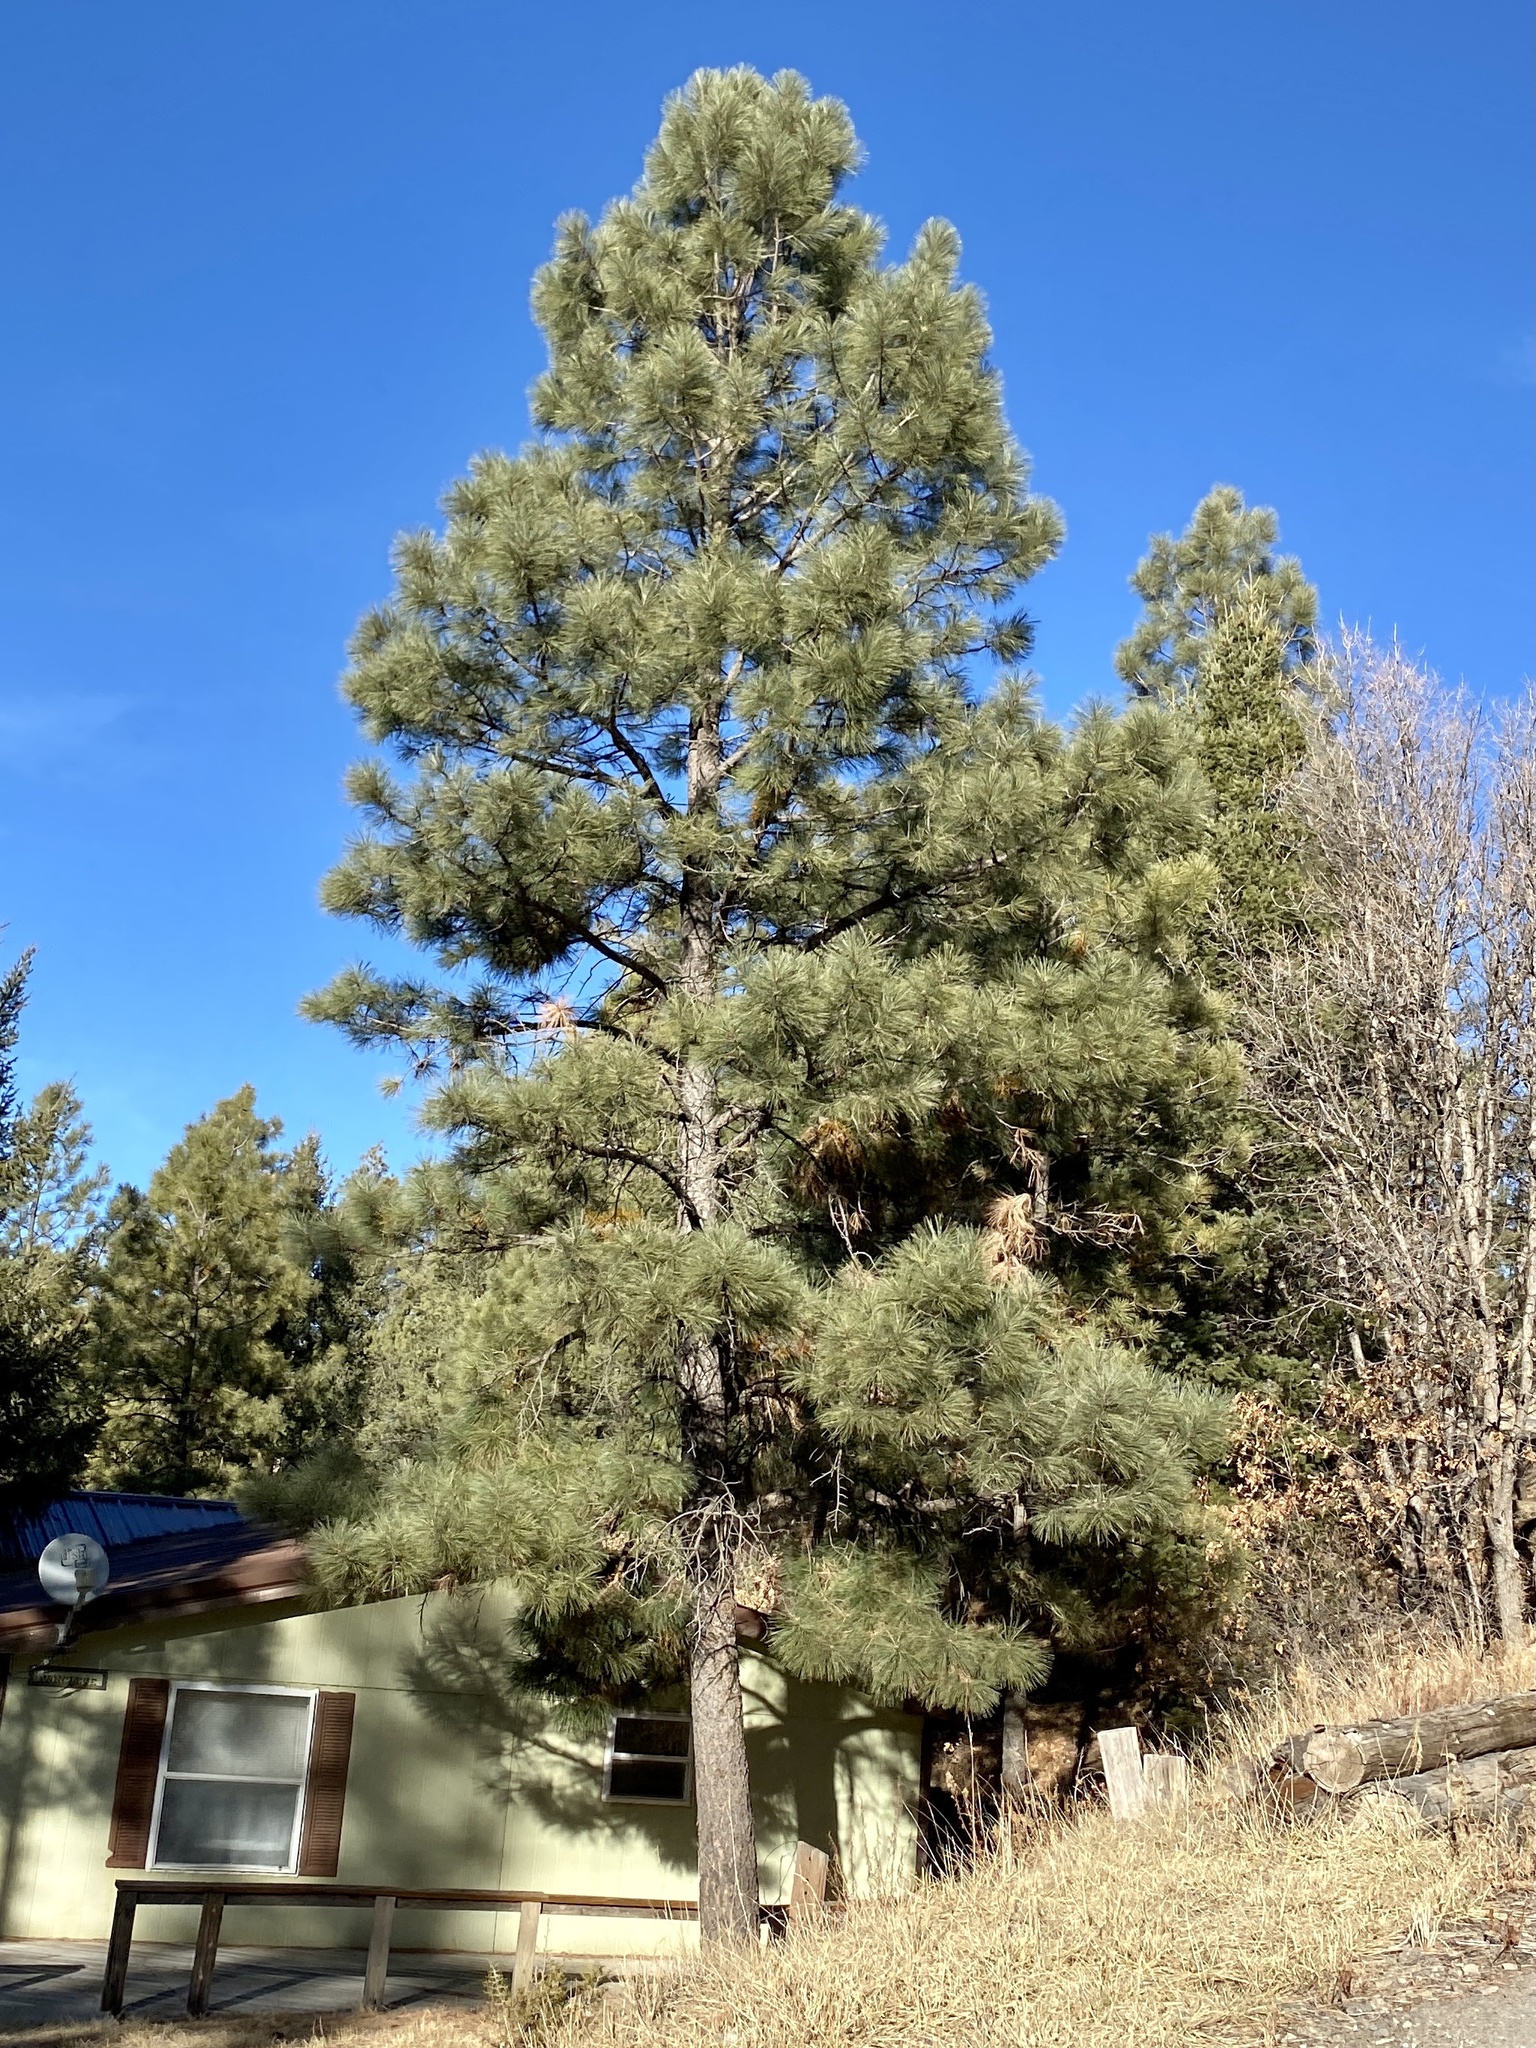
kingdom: Plantae
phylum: Tracheophyta
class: Pinopsida
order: Pinales
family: Pinaceae
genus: Pinus
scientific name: Pinus ponderosa
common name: Western yellow-pine
